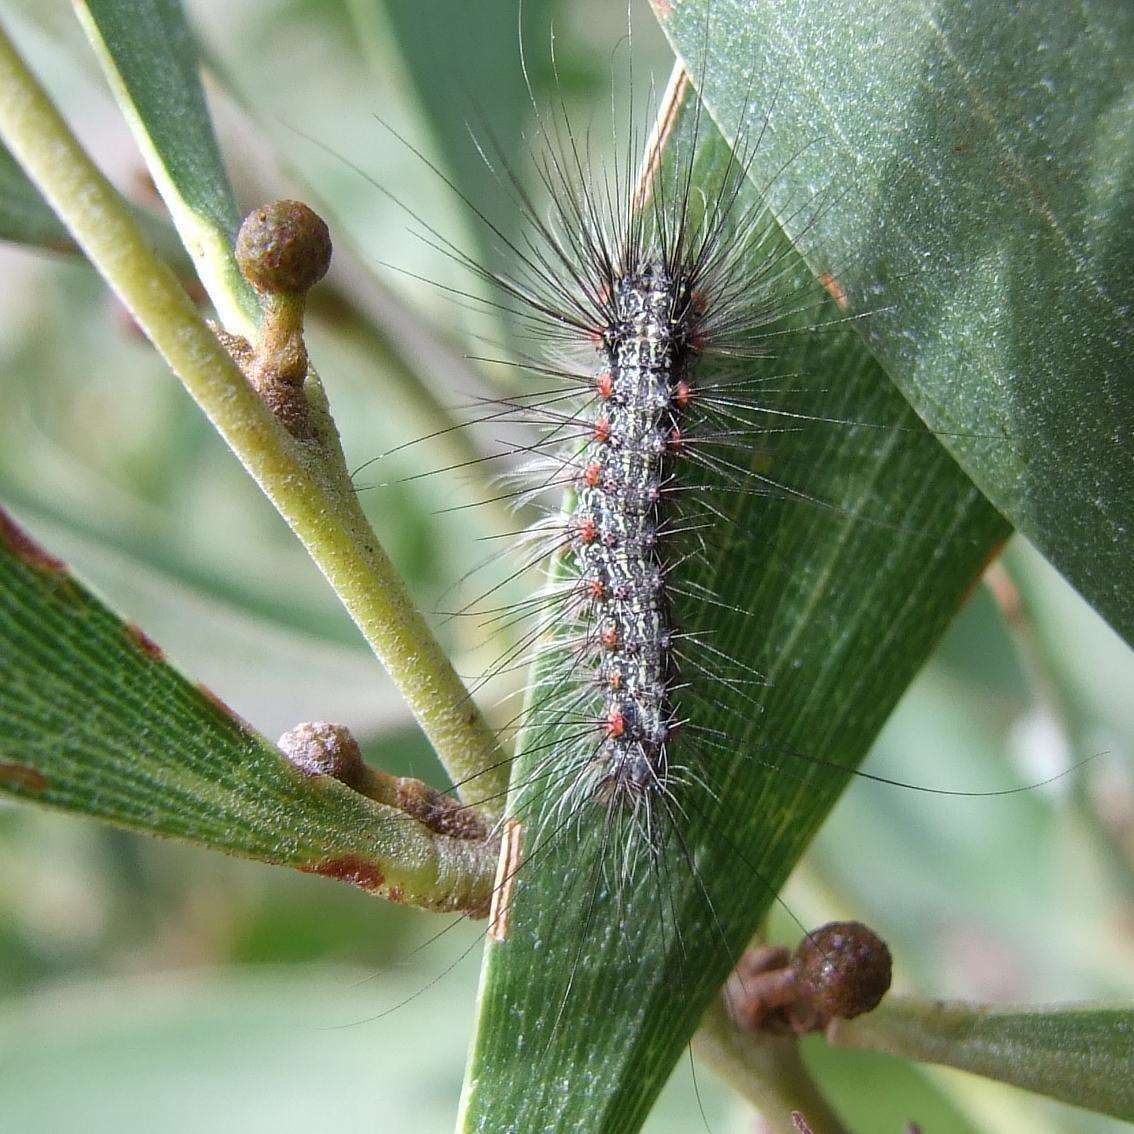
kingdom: Animalia
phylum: Arthropoda
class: Insecta
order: Lepidoptera
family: Erebidae
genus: Anestia
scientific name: Anestia
